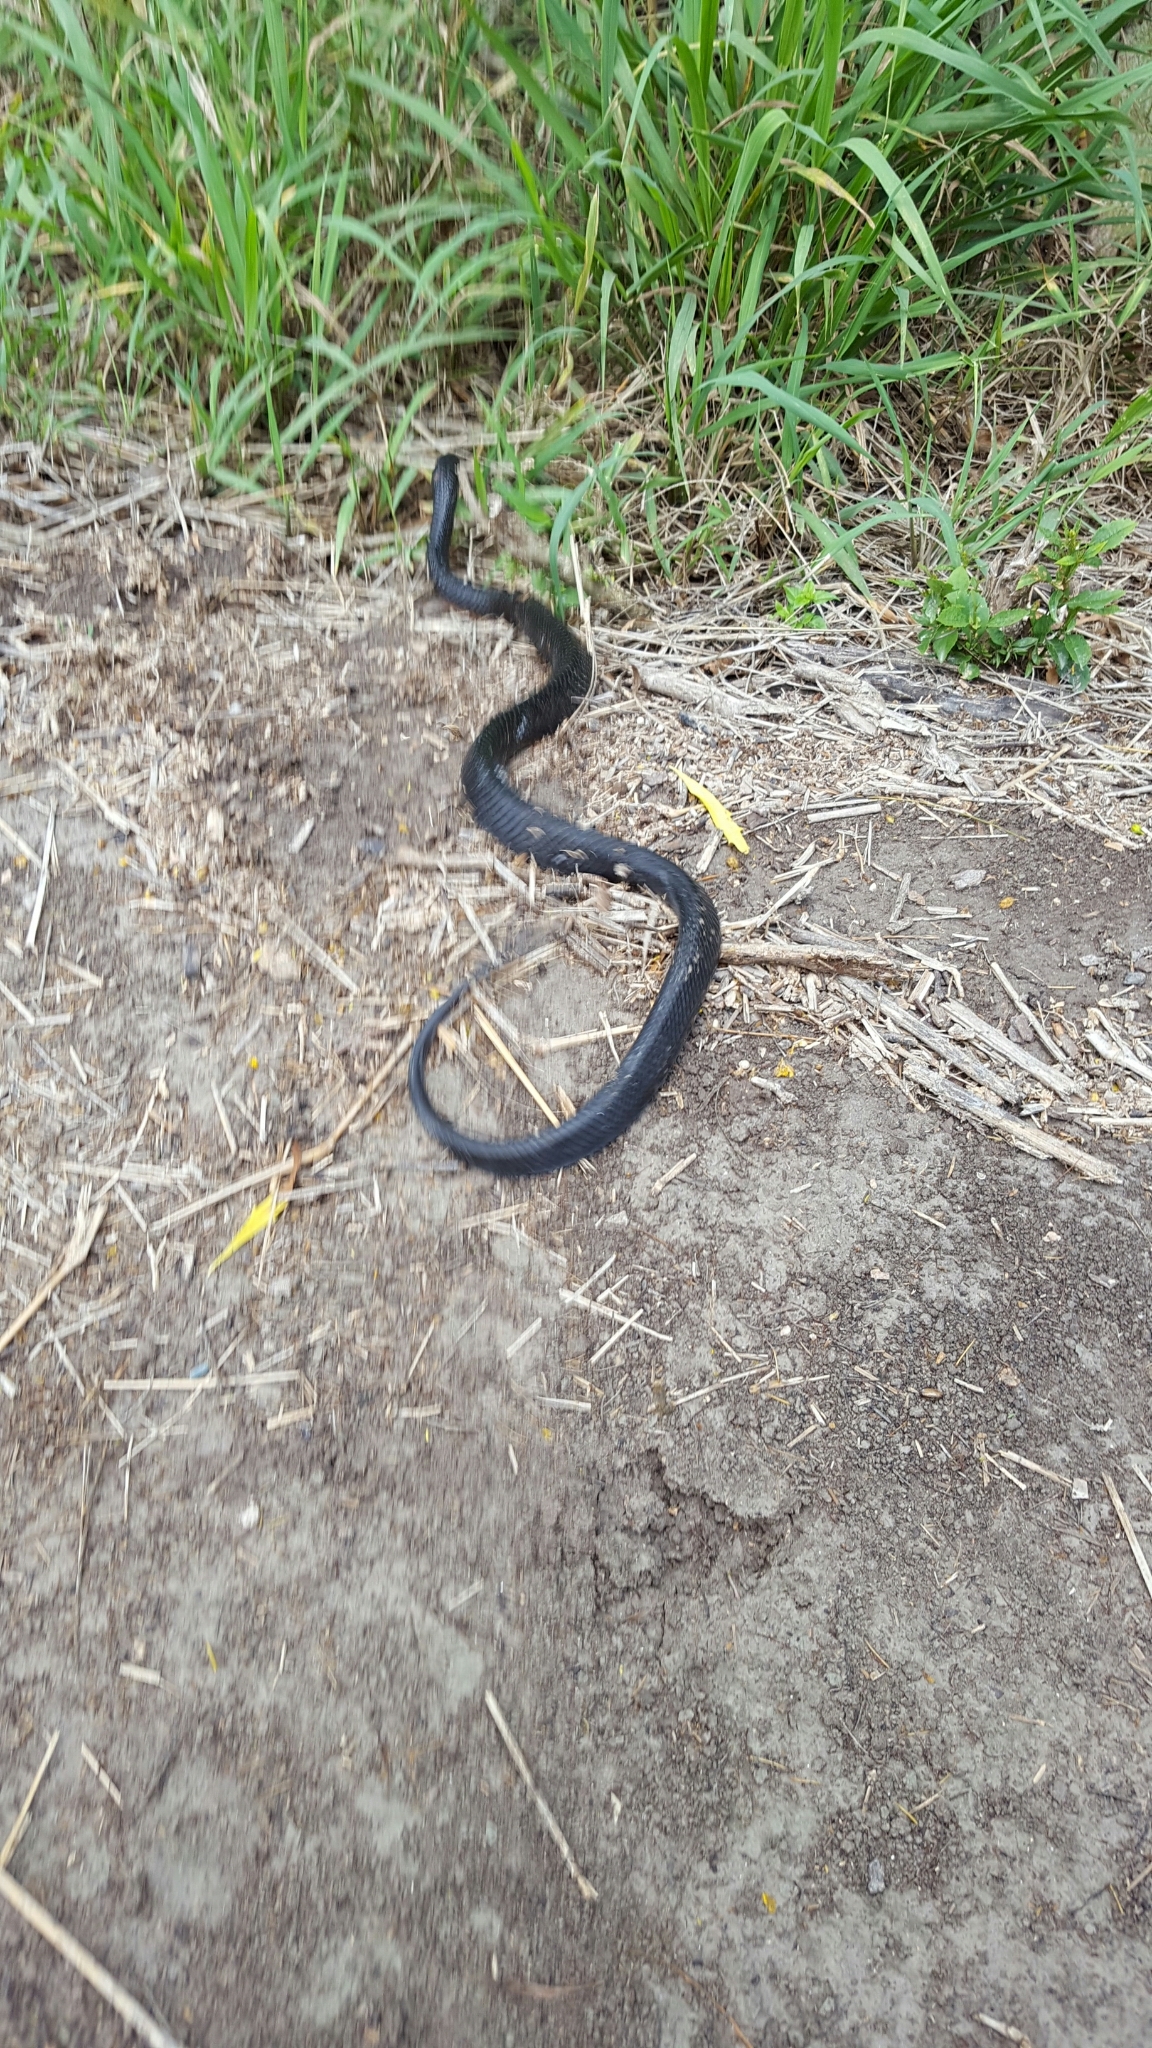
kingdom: Animalia
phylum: Chordata
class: Squamata
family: Colubridae
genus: Drymarchon
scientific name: Drymarchon melanurus
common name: Central american indigo snake
